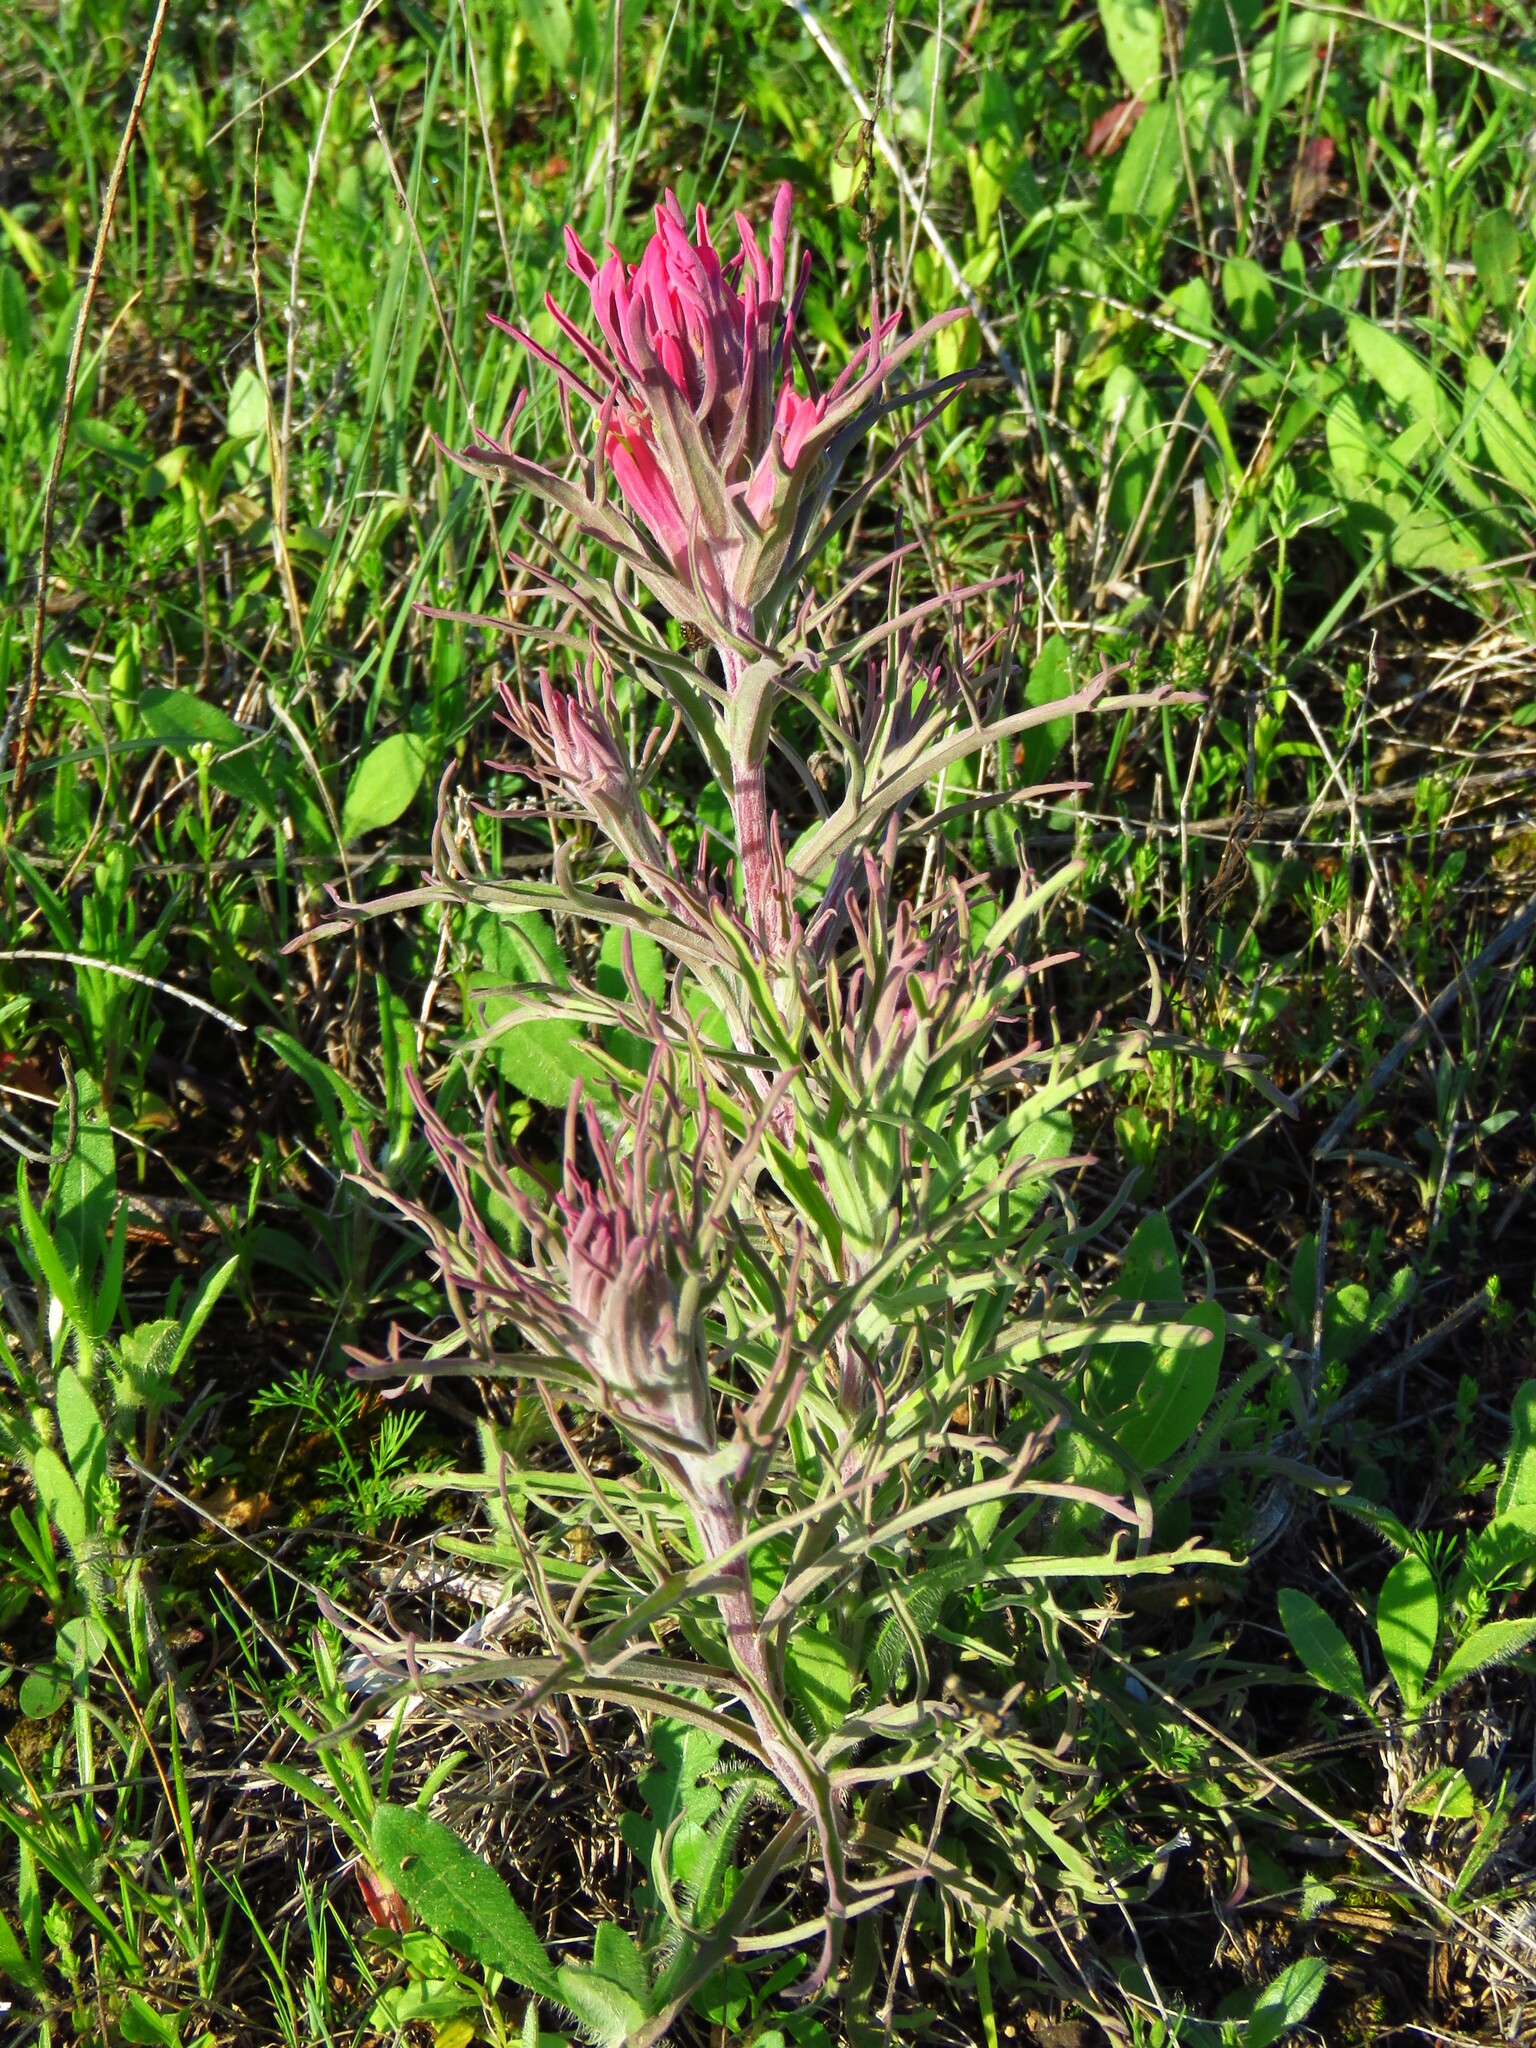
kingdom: Plantae
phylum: Tracheophyta
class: Magnoliopsida
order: Lamiales
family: Orobanchaceae
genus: Castilleja
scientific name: Castilleja purpurea
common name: Plains paintbrush
